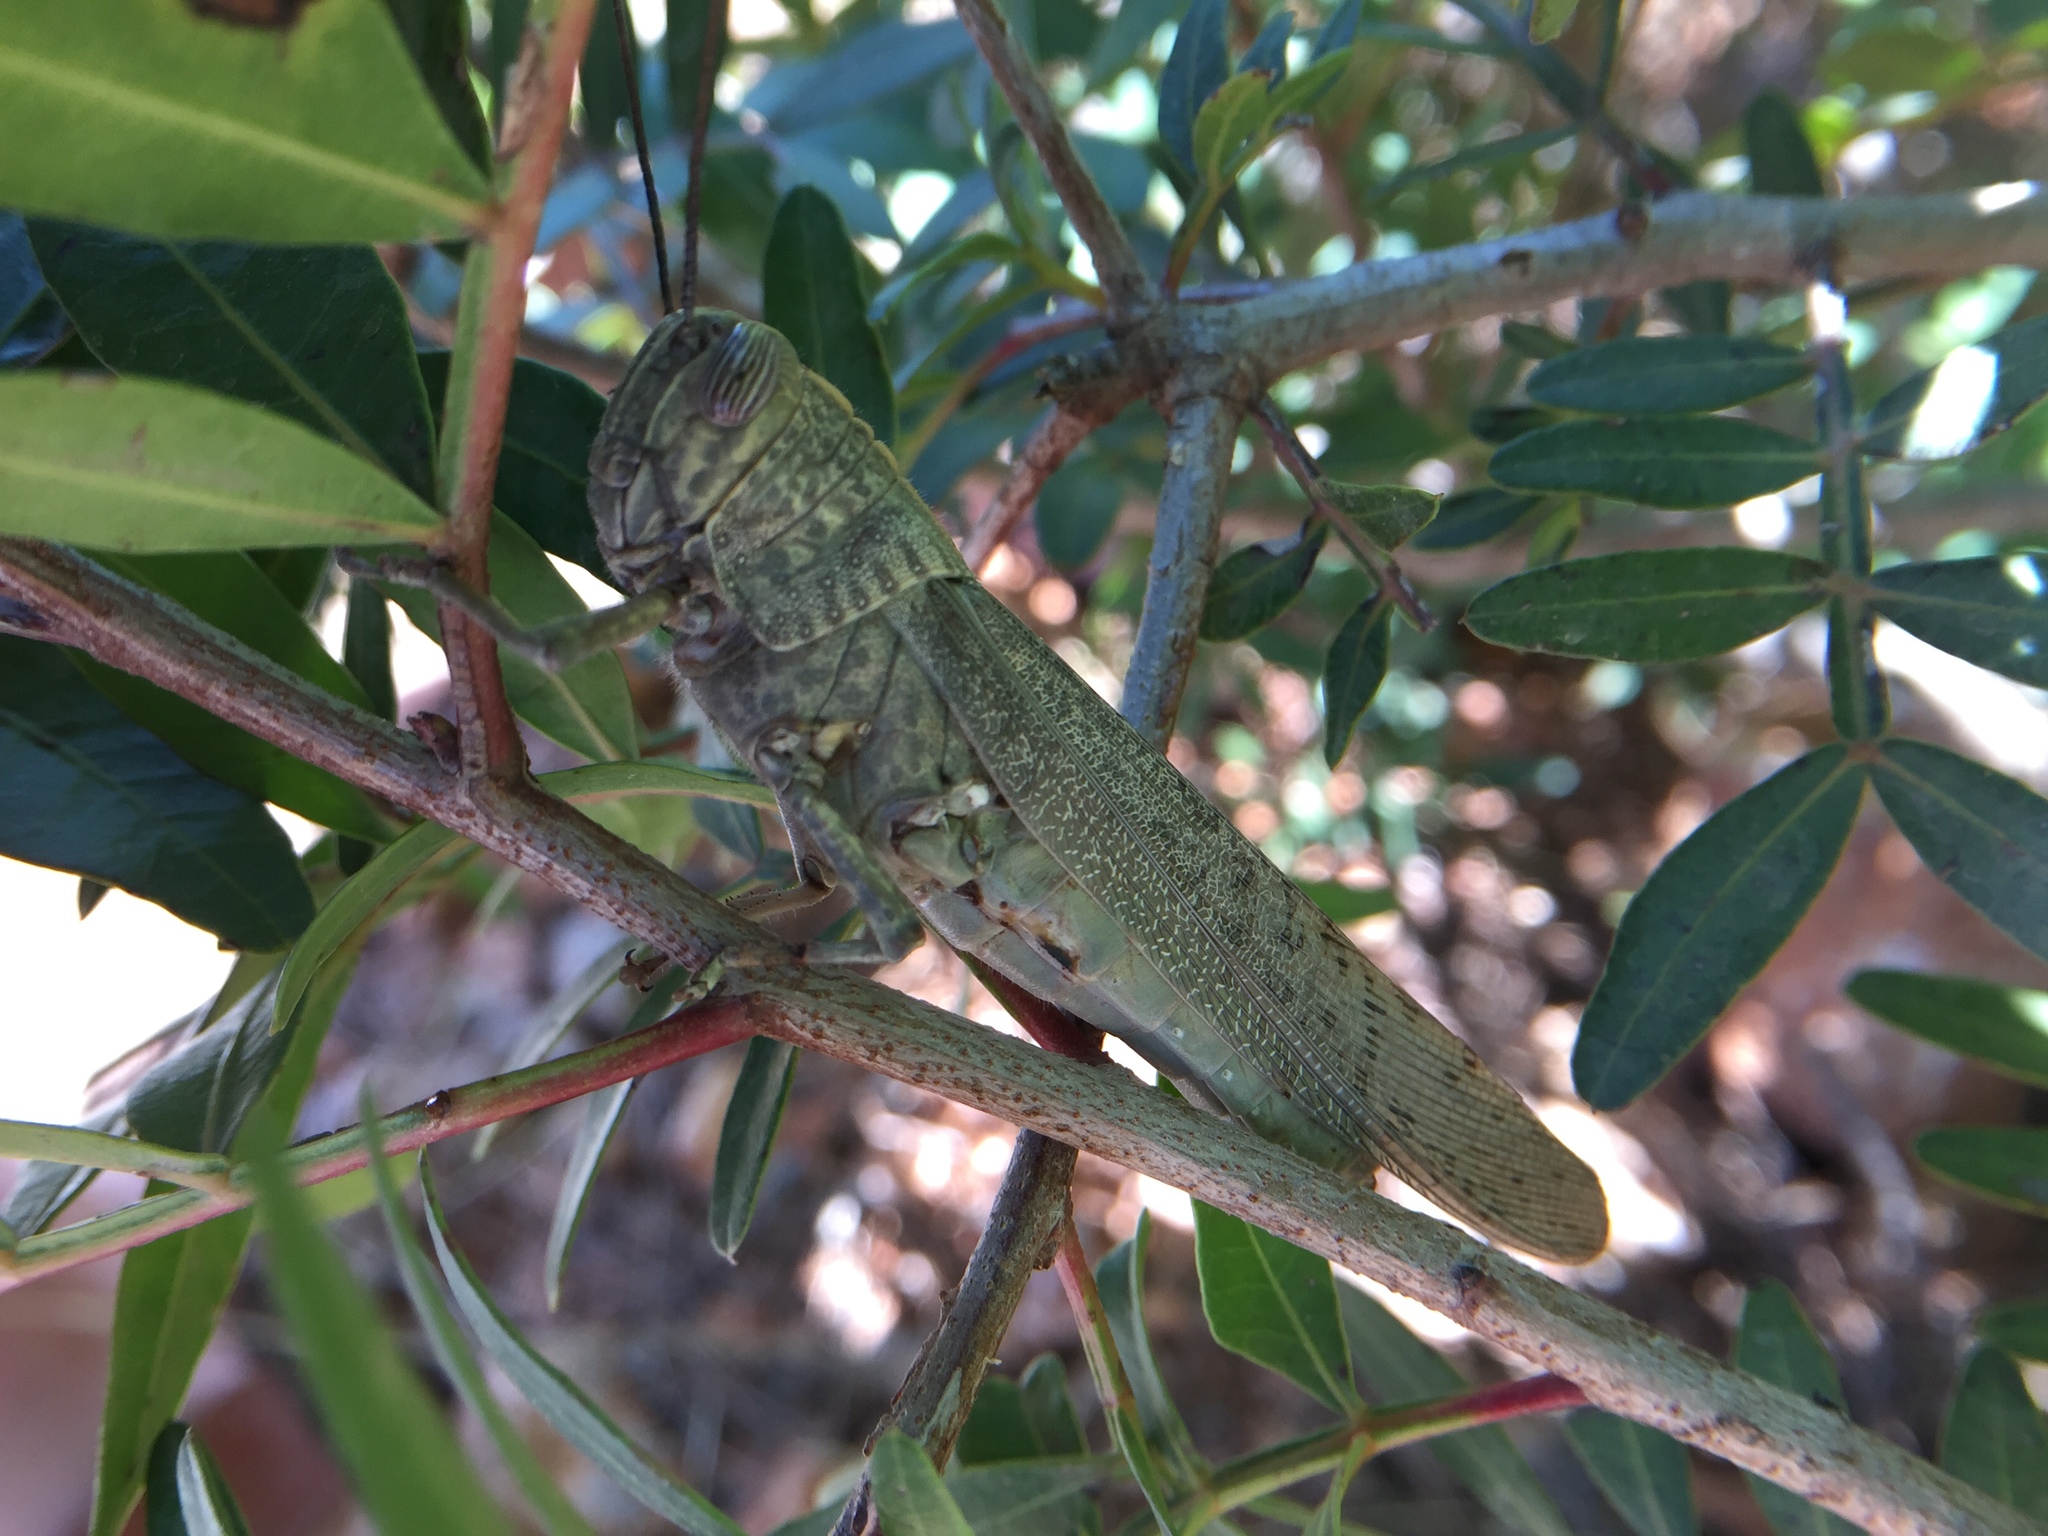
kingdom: Animalia
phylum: Arthropoda
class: Insecta
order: Orthoptera
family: Acrididae
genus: Anacridium
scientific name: Anacridium aegyptium
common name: Egyptian grasshopper
